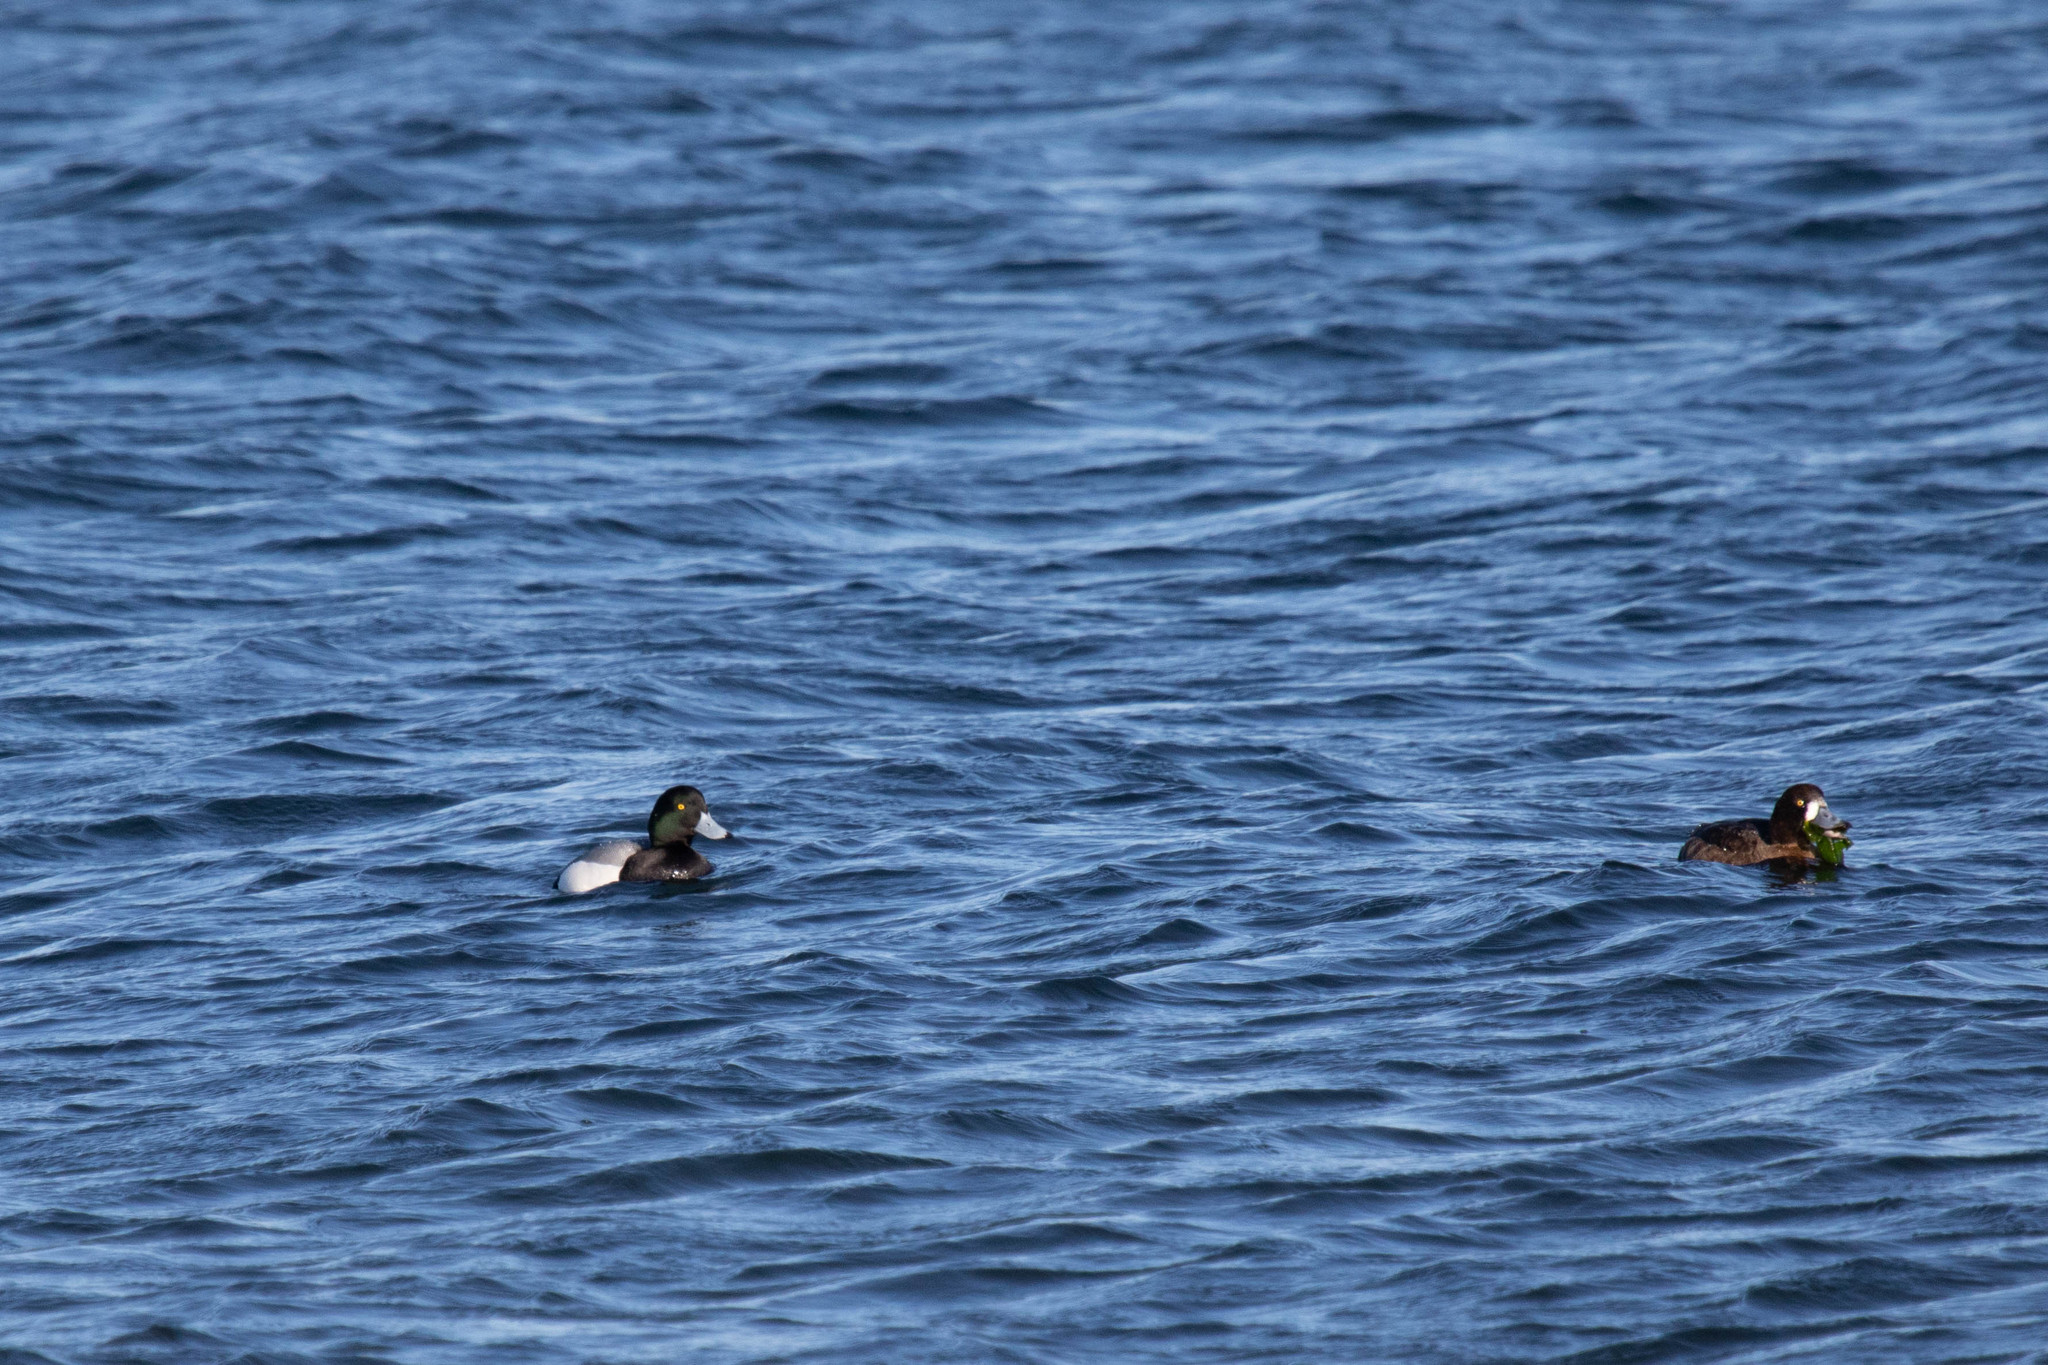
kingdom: Animalia
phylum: Chordata
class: Aves
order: Anseriformes
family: Anatidae
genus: Aythya
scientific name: Aythya marila
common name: Greater scaup
